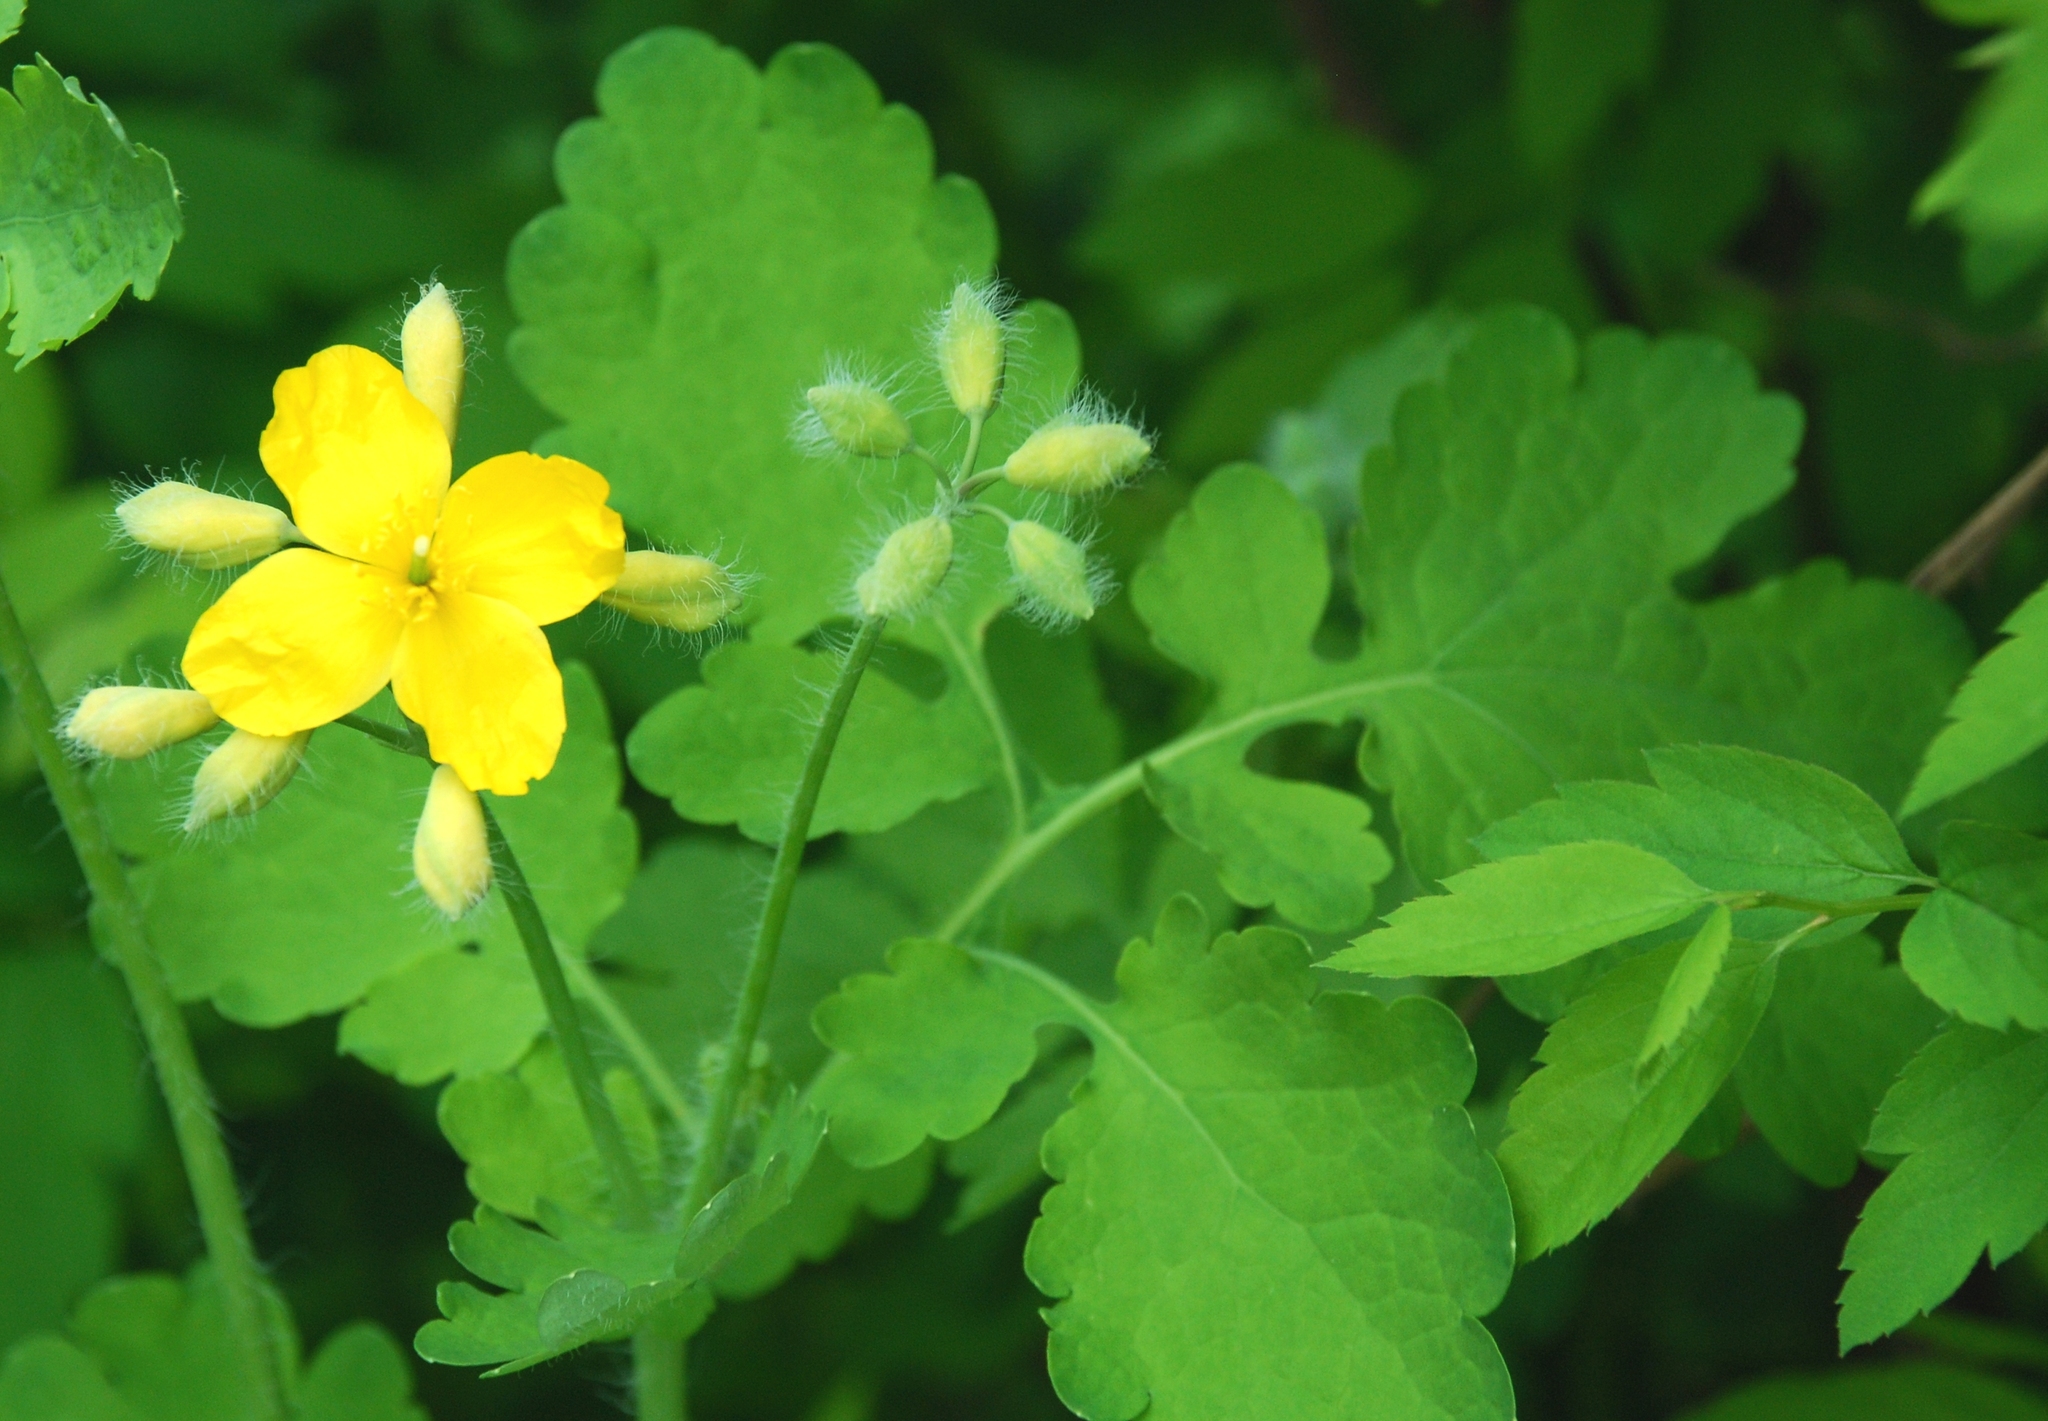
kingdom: Plantae
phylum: Tracheophyta
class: Magnoliopsida
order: Ranunculales
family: Papaveraceae
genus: Chelidonium
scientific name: Chelidonium majus
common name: Greater celandine
